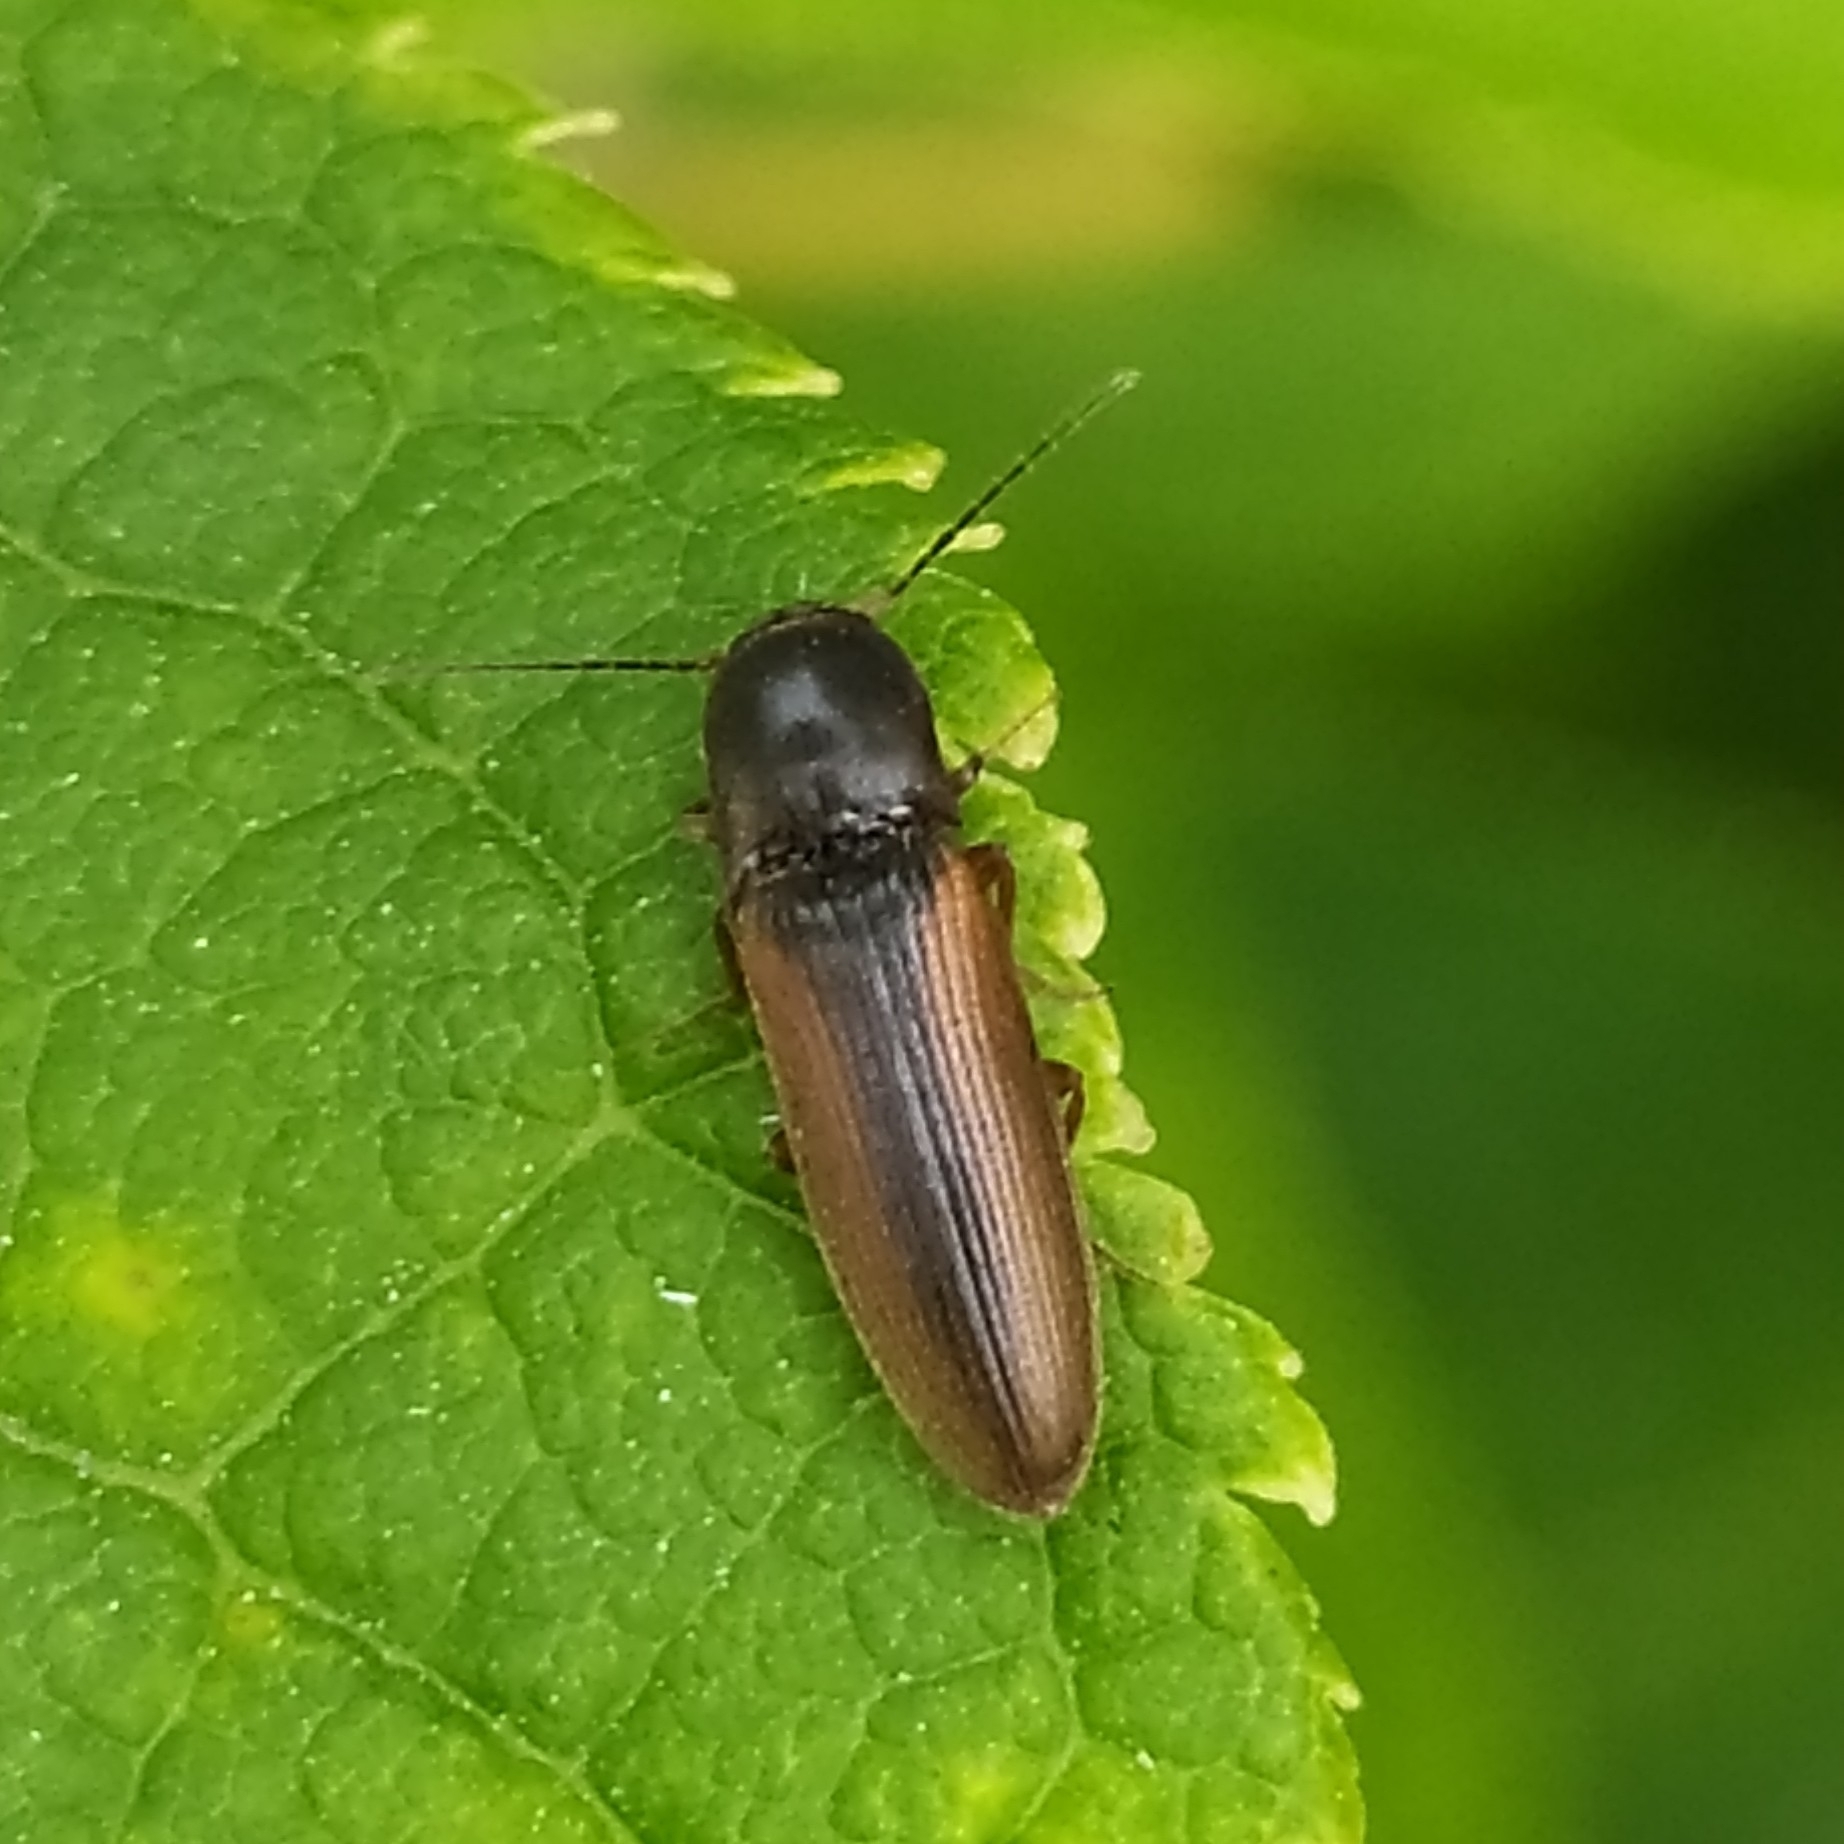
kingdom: Animalia
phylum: Arthropoda
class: Insecta
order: Coleoptera
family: Elateridae
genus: Dalopius
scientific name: Dalopius marginatus
